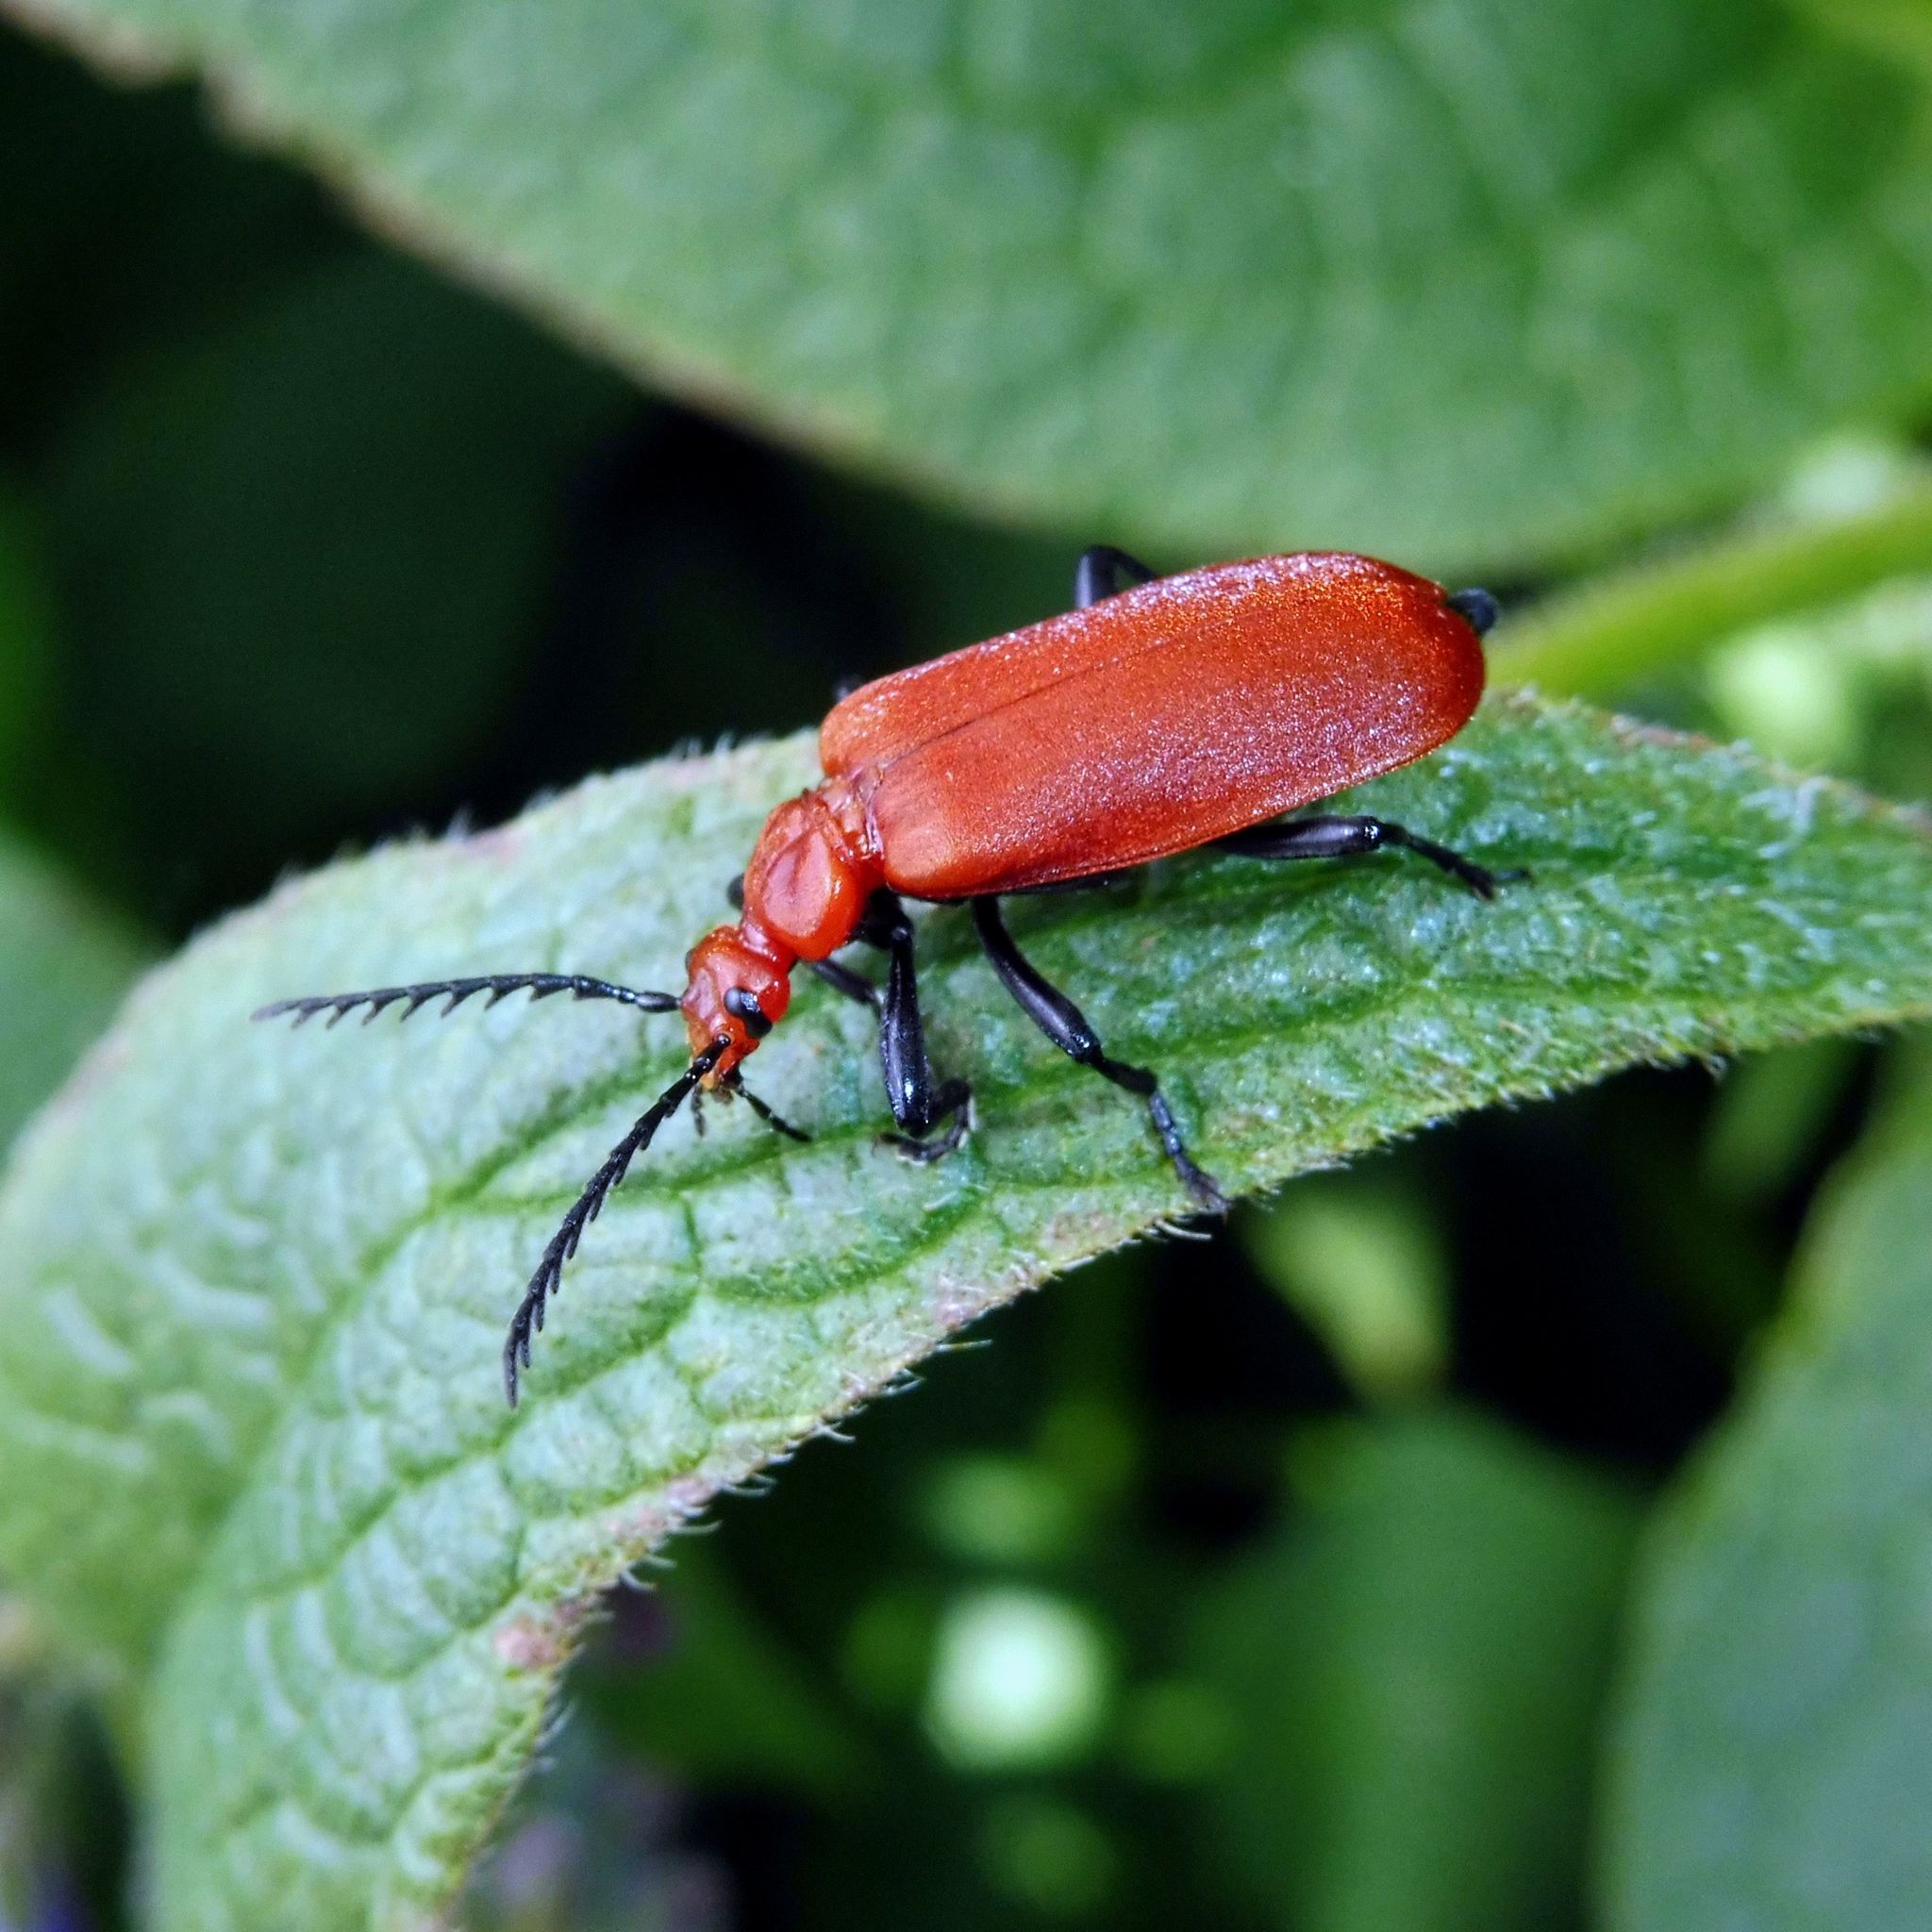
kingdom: Animalia
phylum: Arthropoda
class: Insecta
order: Coleoptera
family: Pyrochroidae
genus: Pyrochroa
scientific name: Pyrochroa serraticornis
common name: Red-headed cardinal beetle
